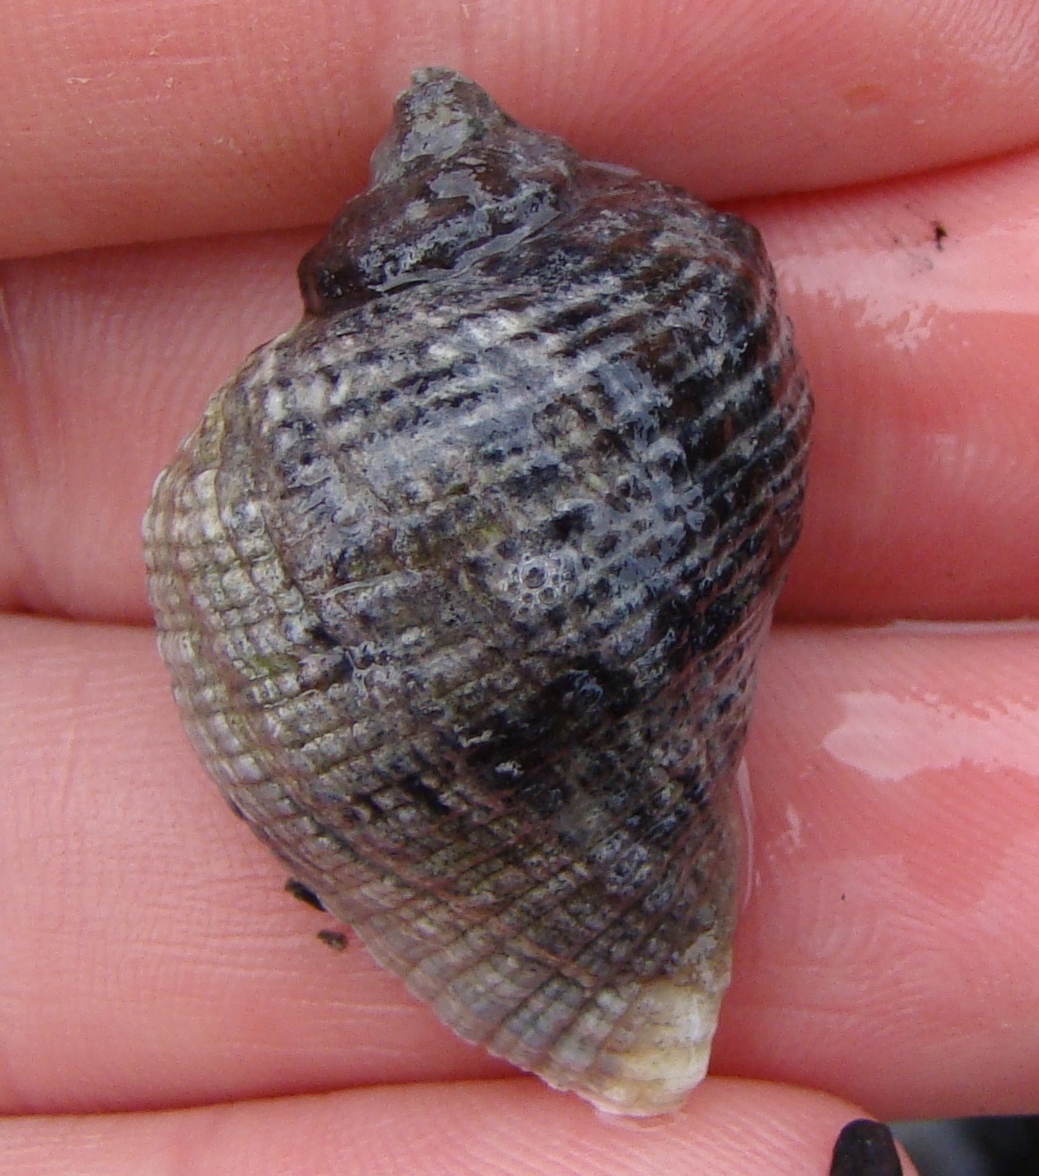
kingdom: Animalia
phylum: Mollusca
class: Gastropoda
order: Neogastropoda
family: Muricidae
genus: Haustrum
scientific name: Haustrum haustorium
